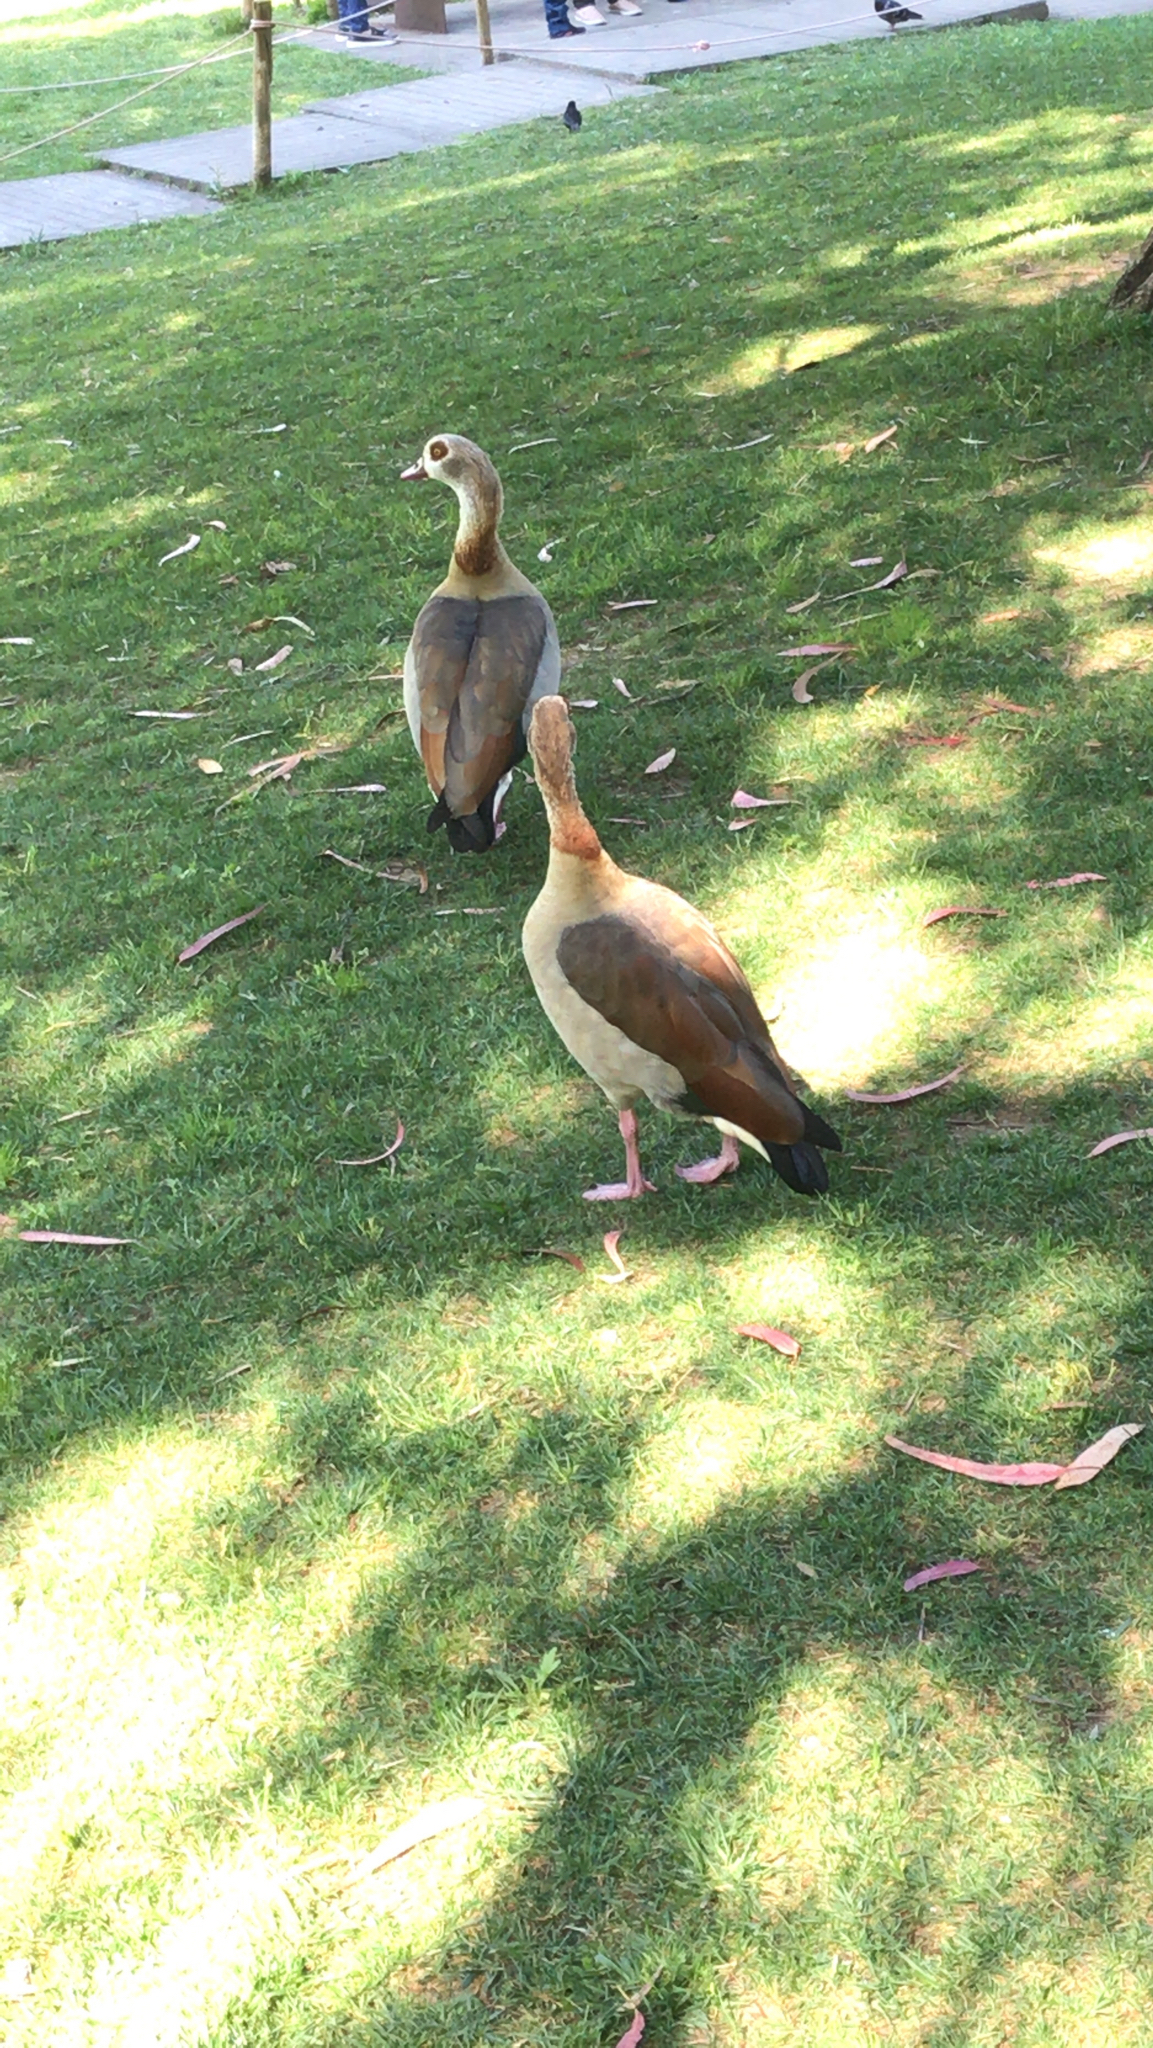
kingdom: Animalia
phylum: Chordata
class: Aves
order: Anseriformes
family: Anatidae
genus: Alopochen
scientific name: Alopochen aegyptiaca
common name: Egyptian goose
